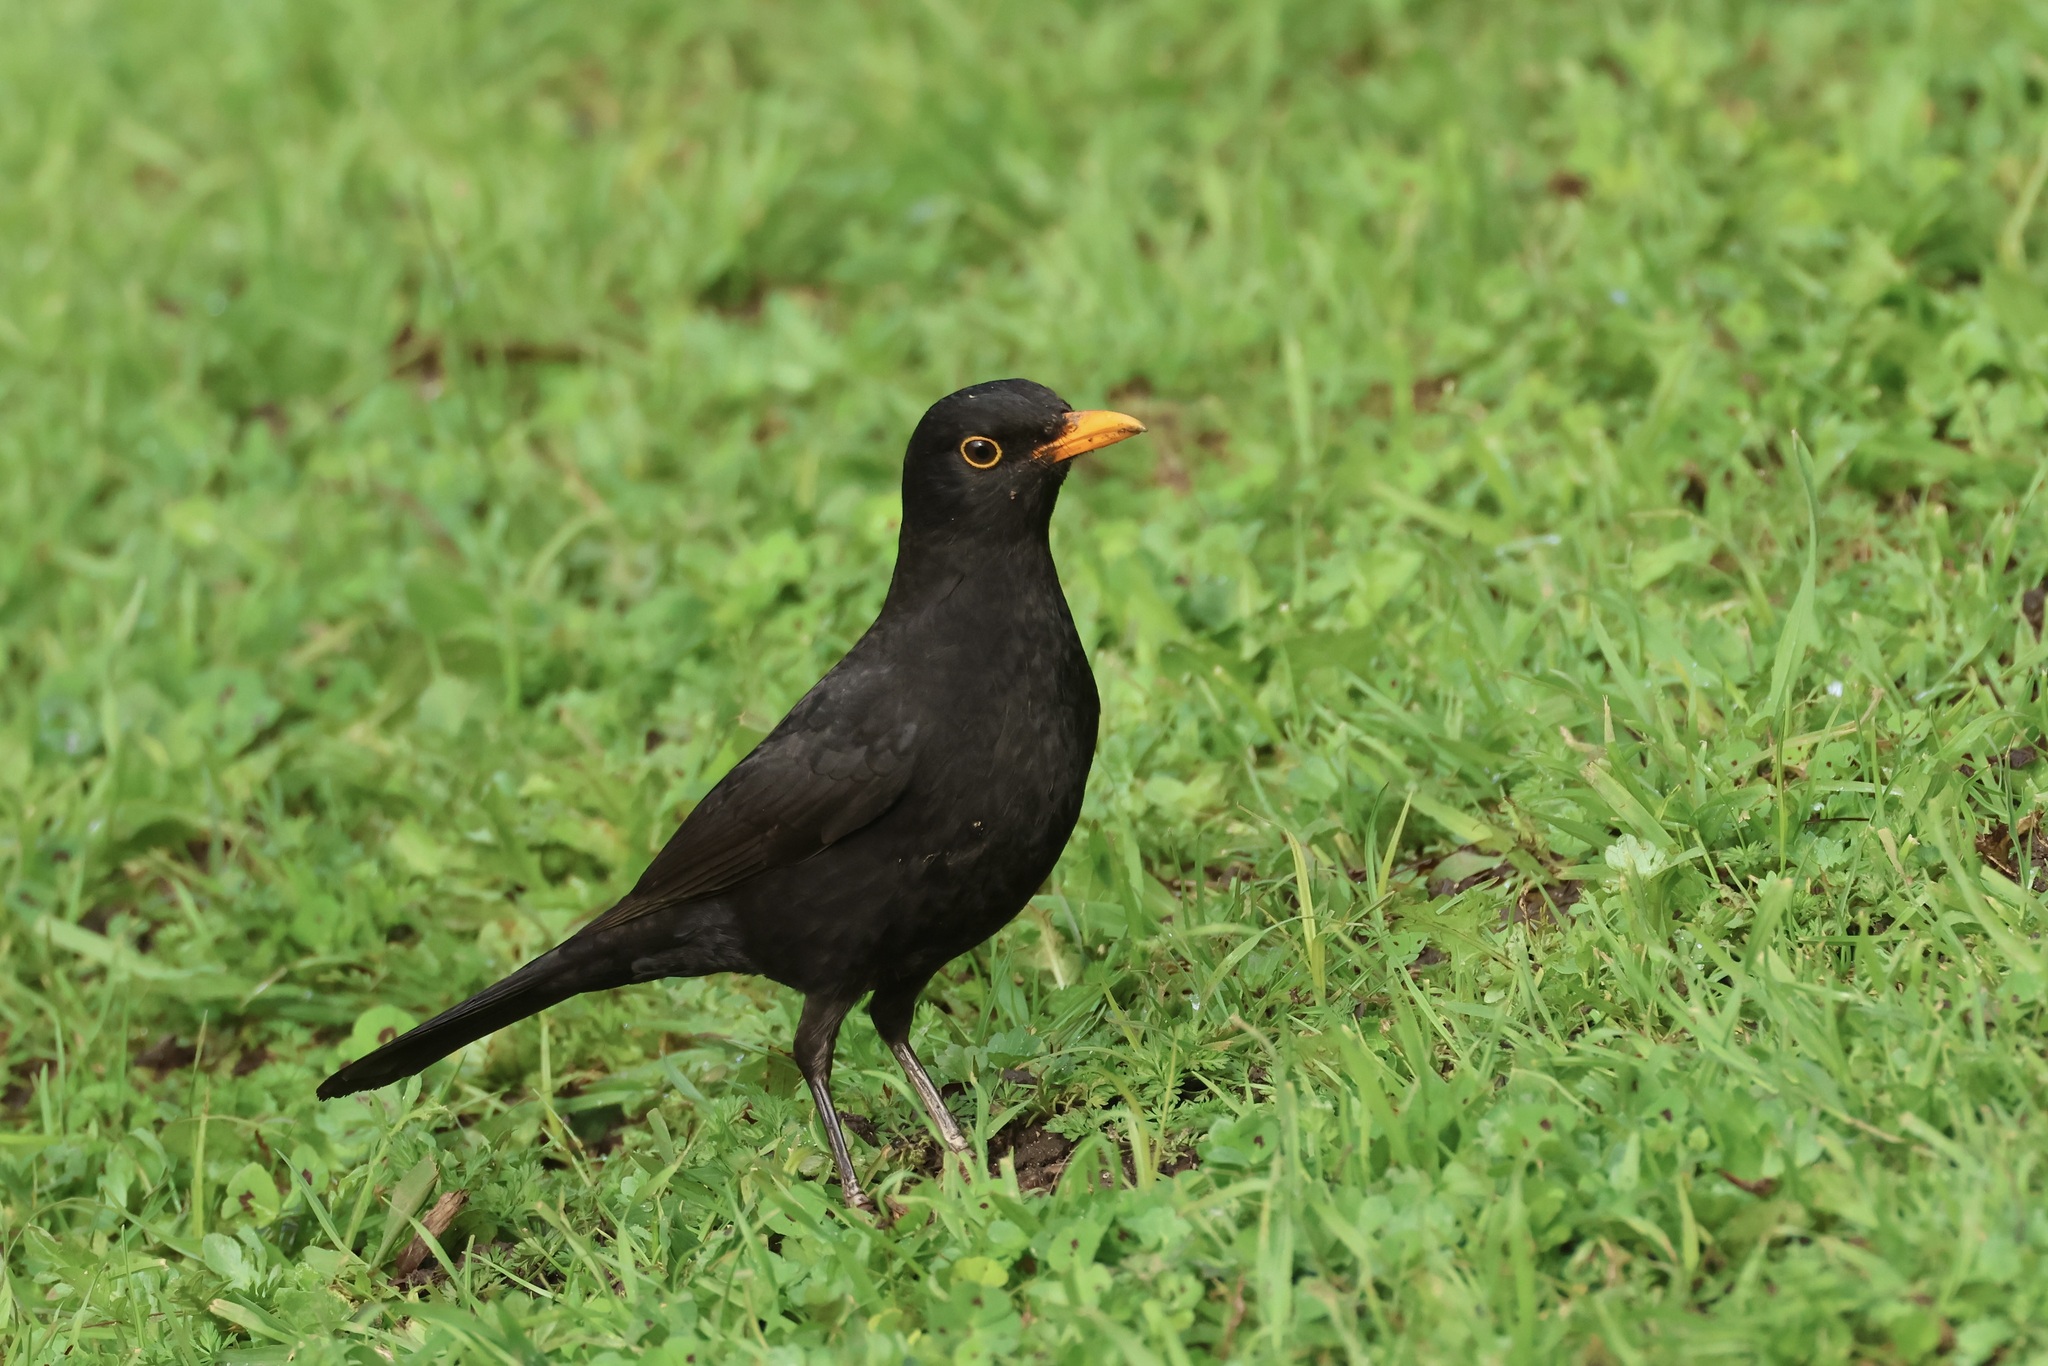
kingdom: Animalia
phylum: Chordata
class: Aves
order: Passeriformes
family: Turdidae
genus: Turdus
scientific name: Turdus merula
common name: Common blackbird
